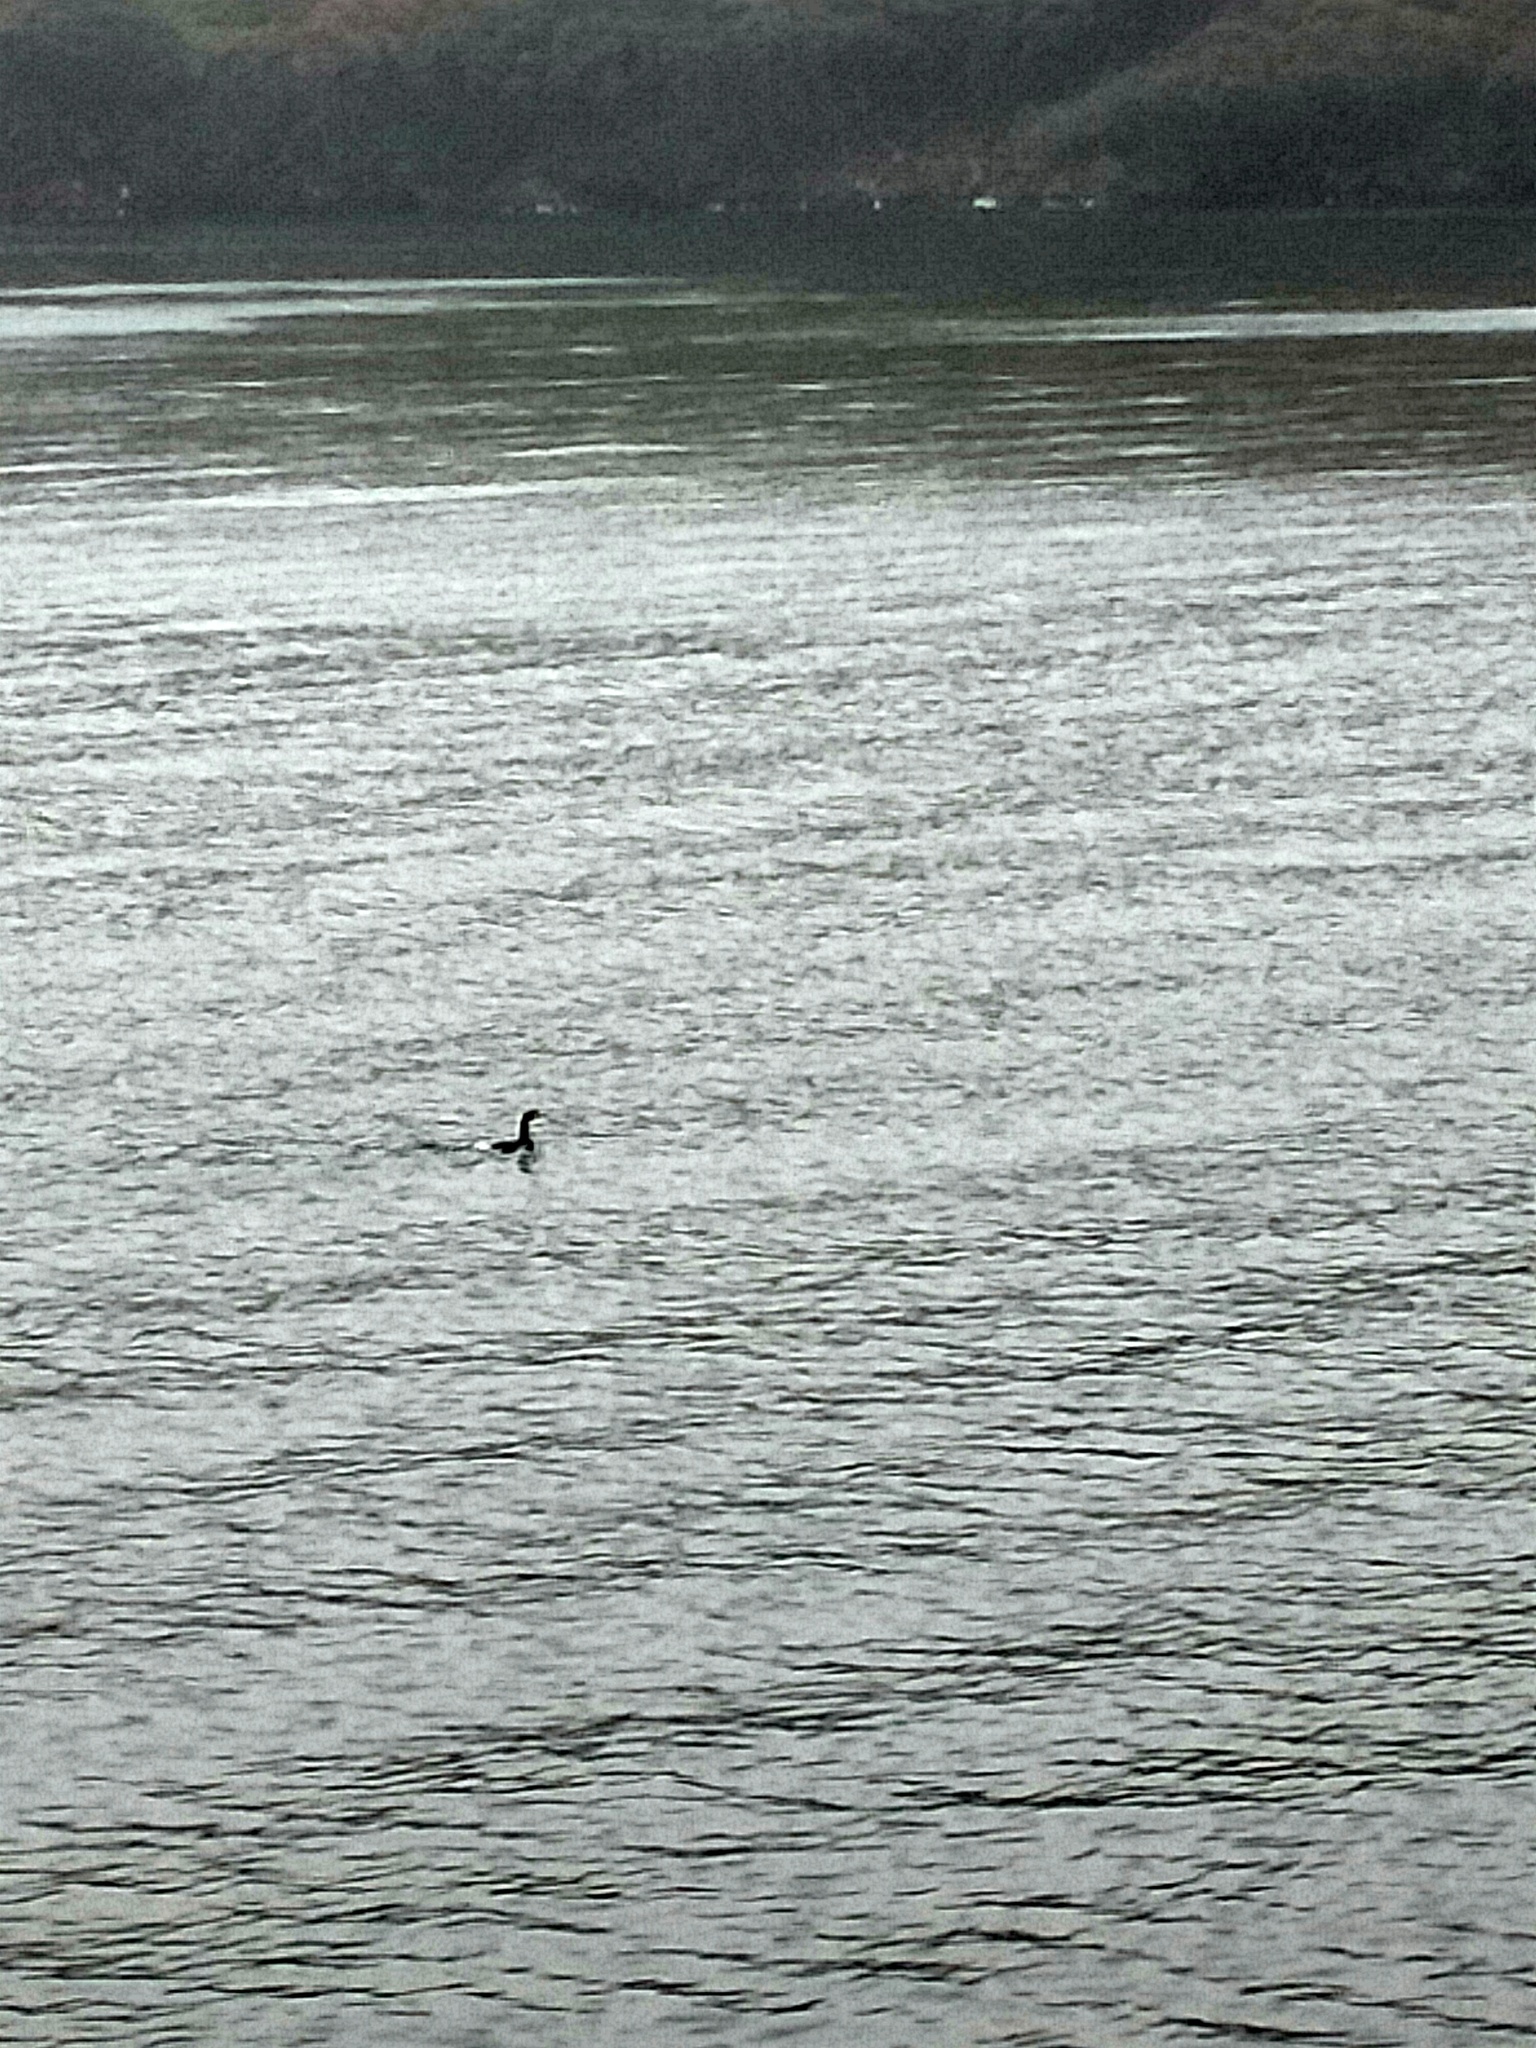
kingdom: Animalia
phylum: Chordata
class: Aves
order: Procellariiformes
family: Procellariidae
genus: Puffinus
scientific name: Puffinus griseus
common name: Sooty shearwater
